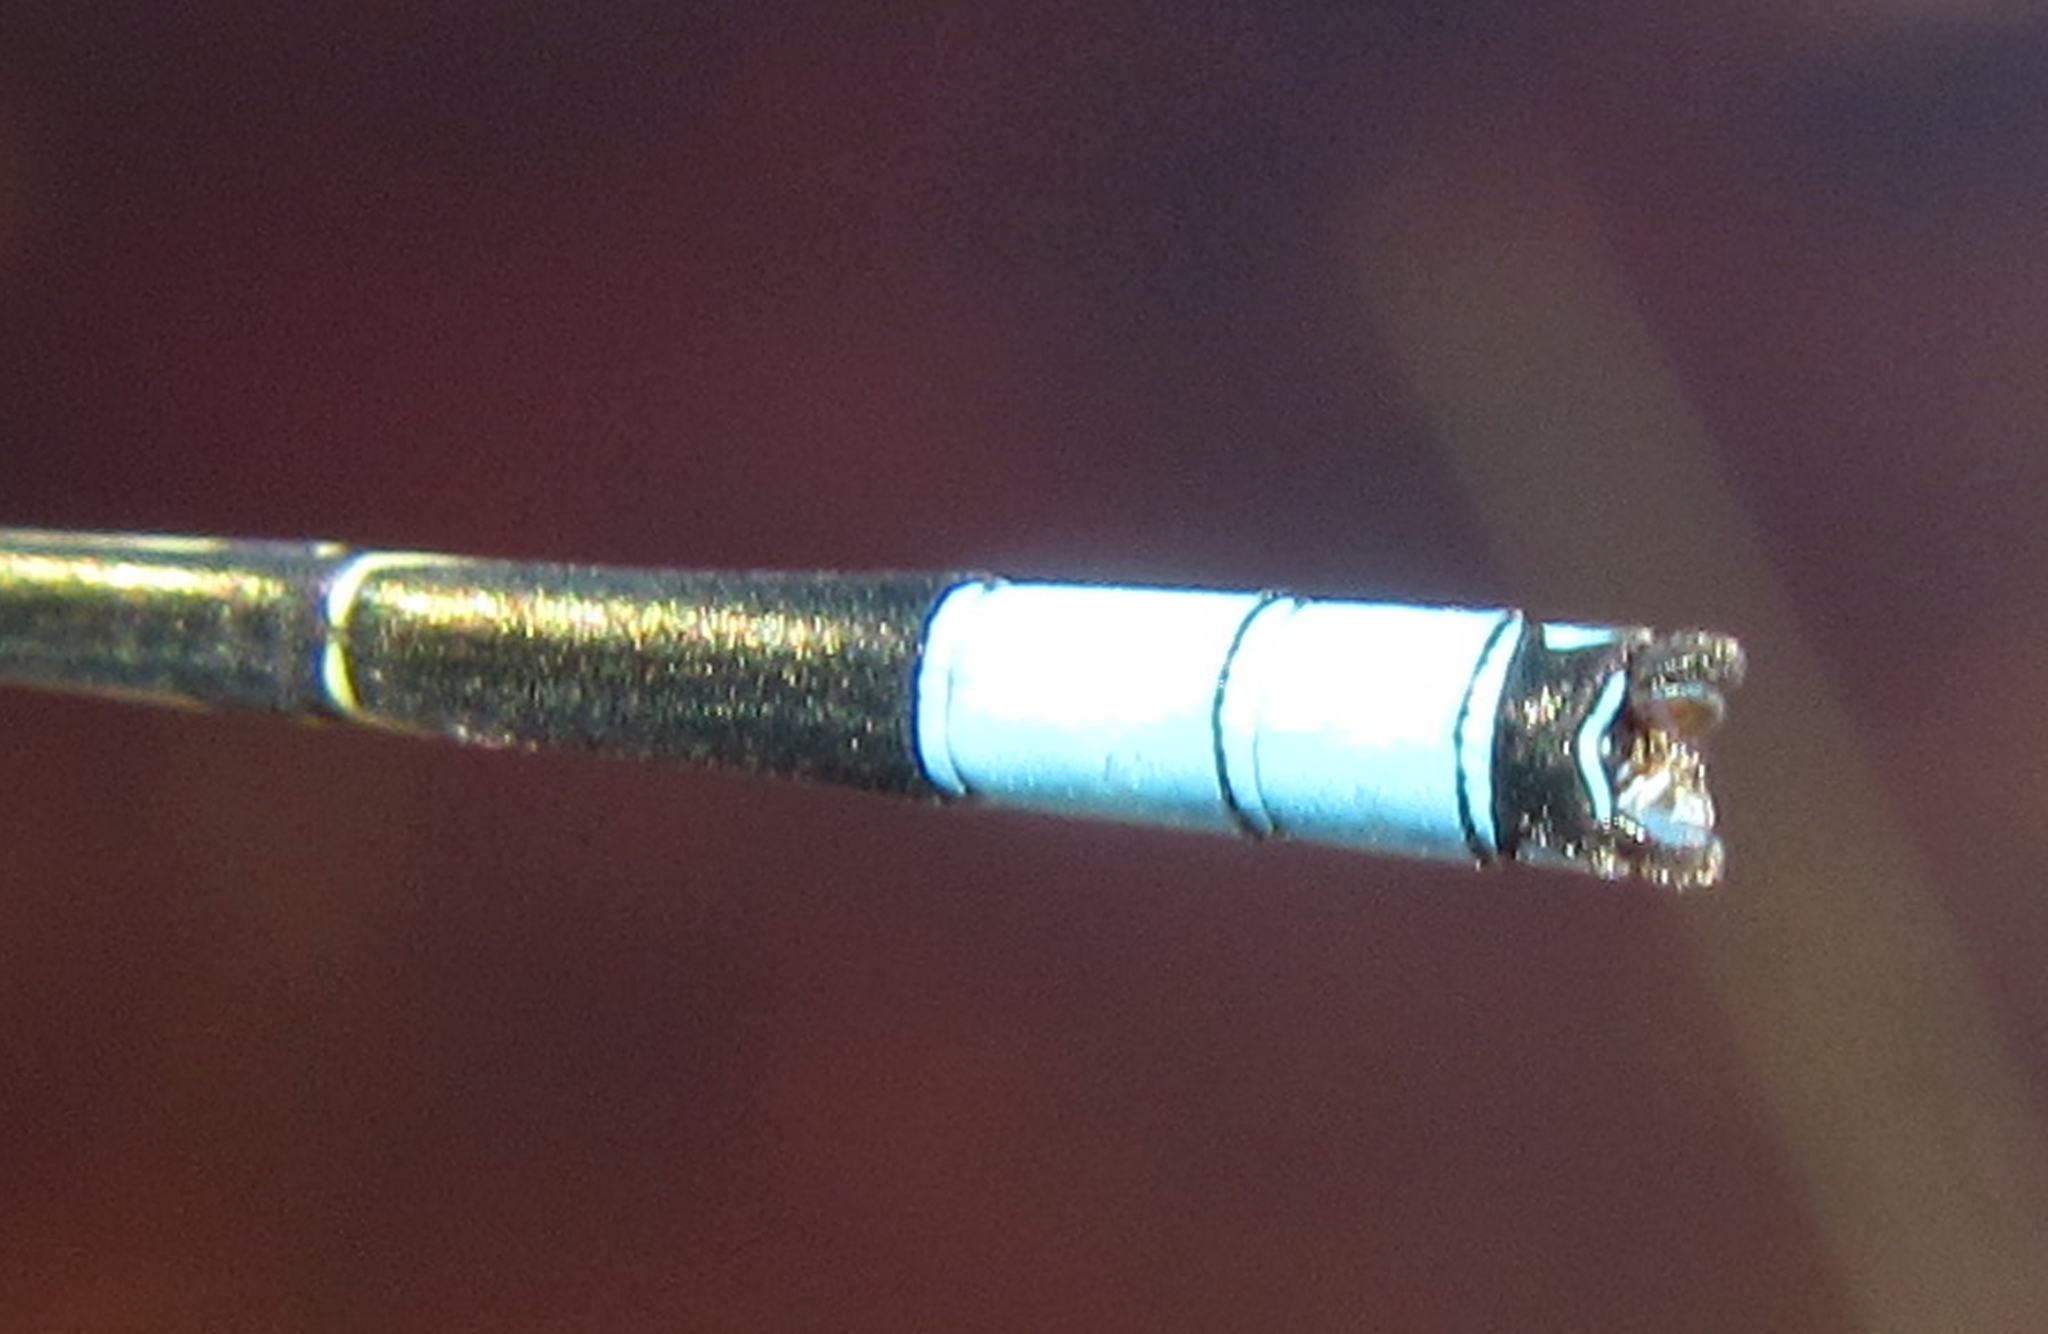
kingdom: Animalia
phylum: Arthropoda
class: Insecta
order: Odonata
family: Coenagrionidae
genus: Pseudagrion
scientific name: Pseudagrion coeleste
